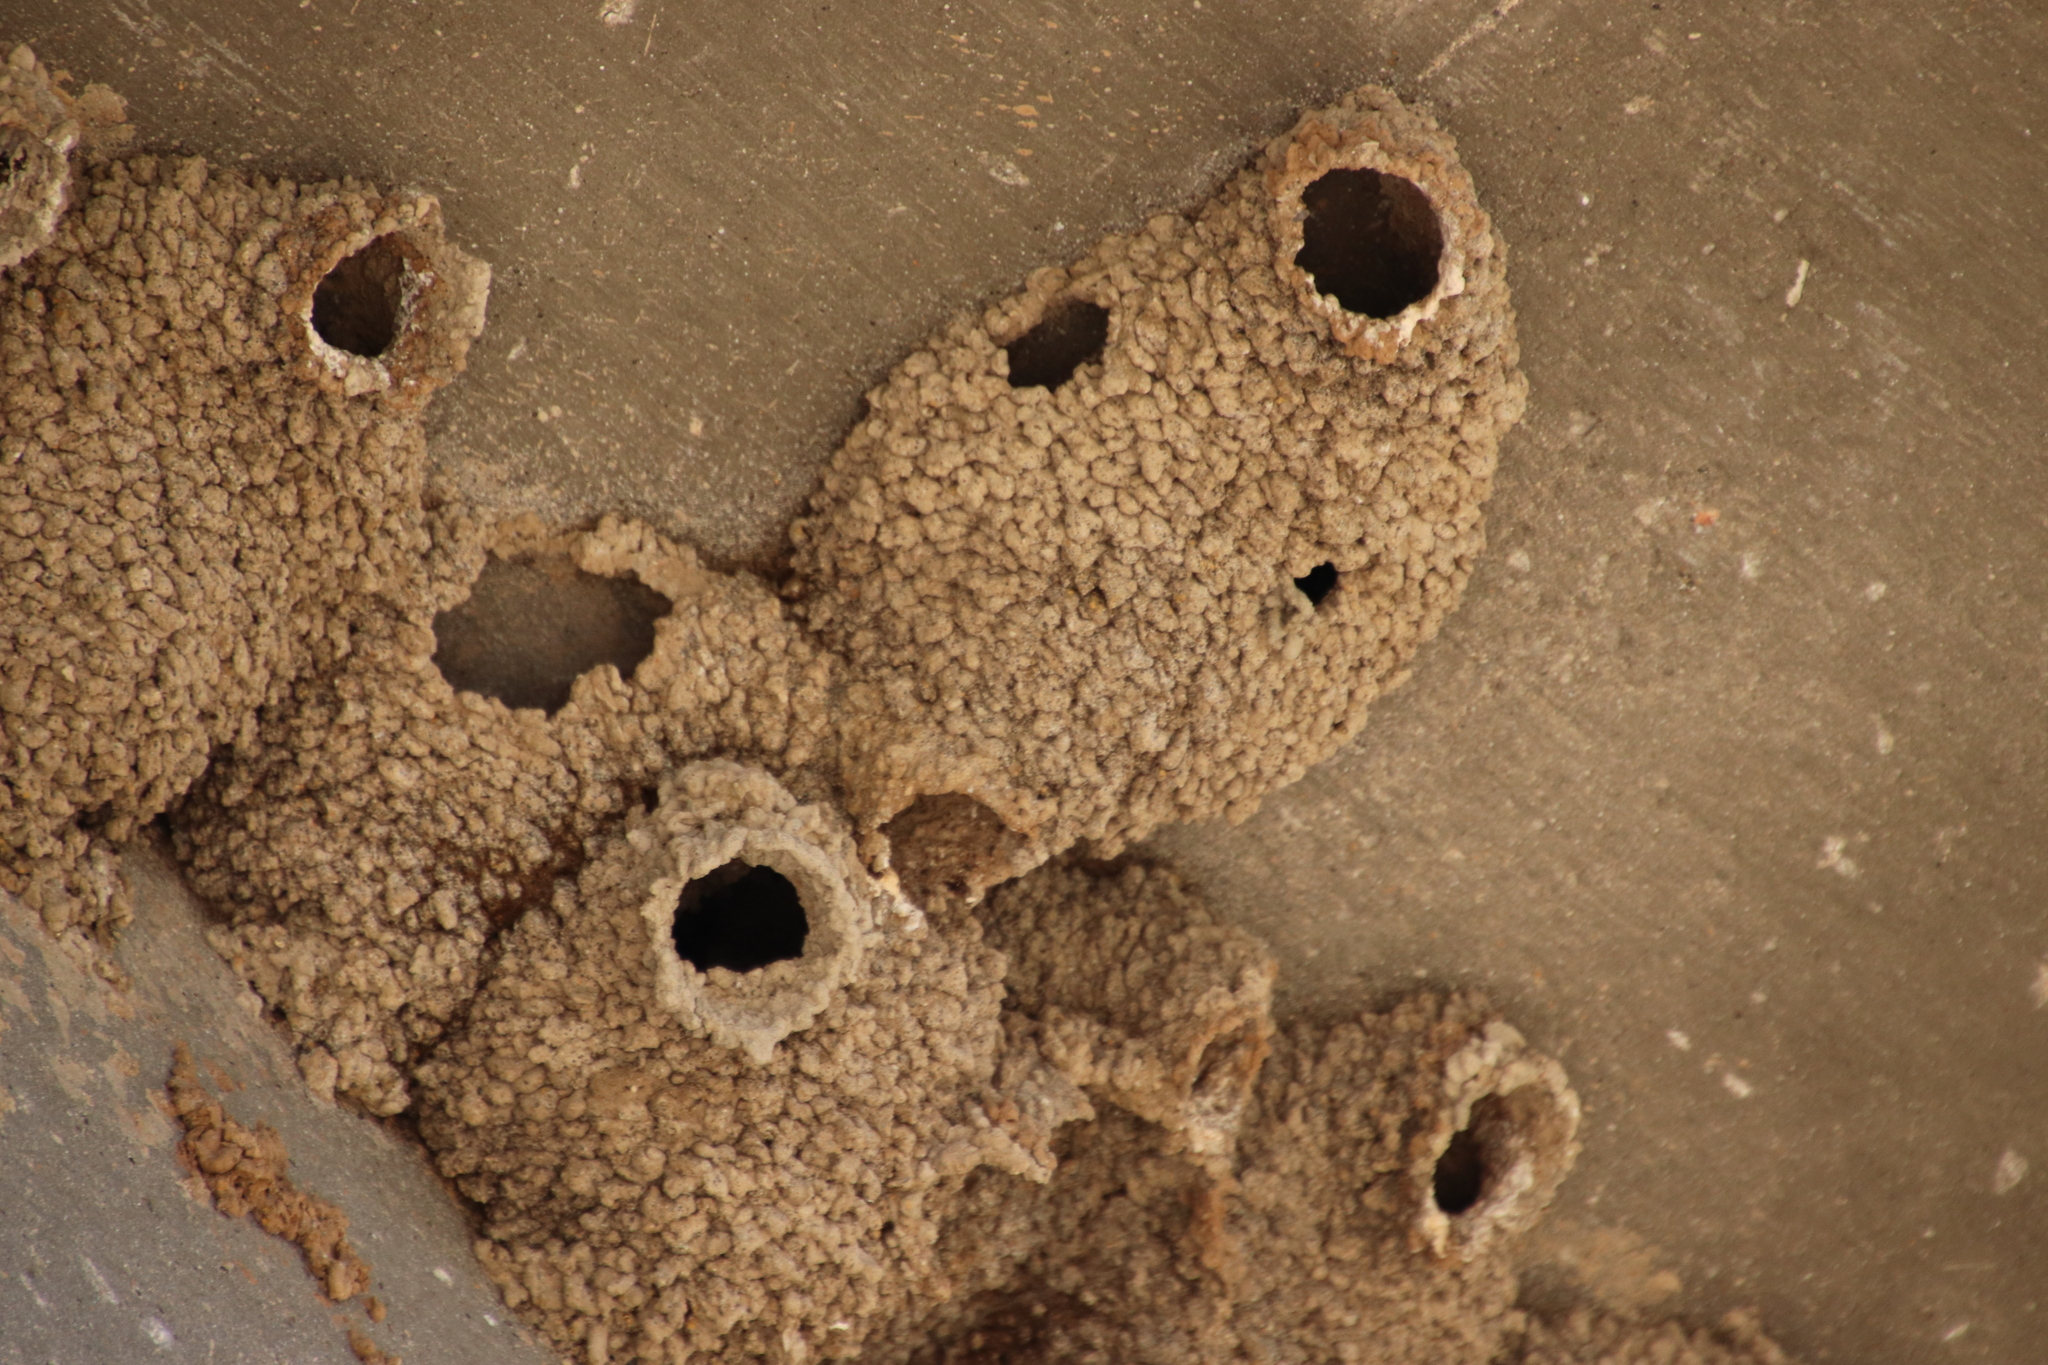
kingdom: Animalia
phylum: Chordata
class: Aves
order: Passeriformes
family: Hirundinidae
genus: Petrochelidon
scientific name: Petrochelidon pyrrhonota
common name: American cliff swallow
